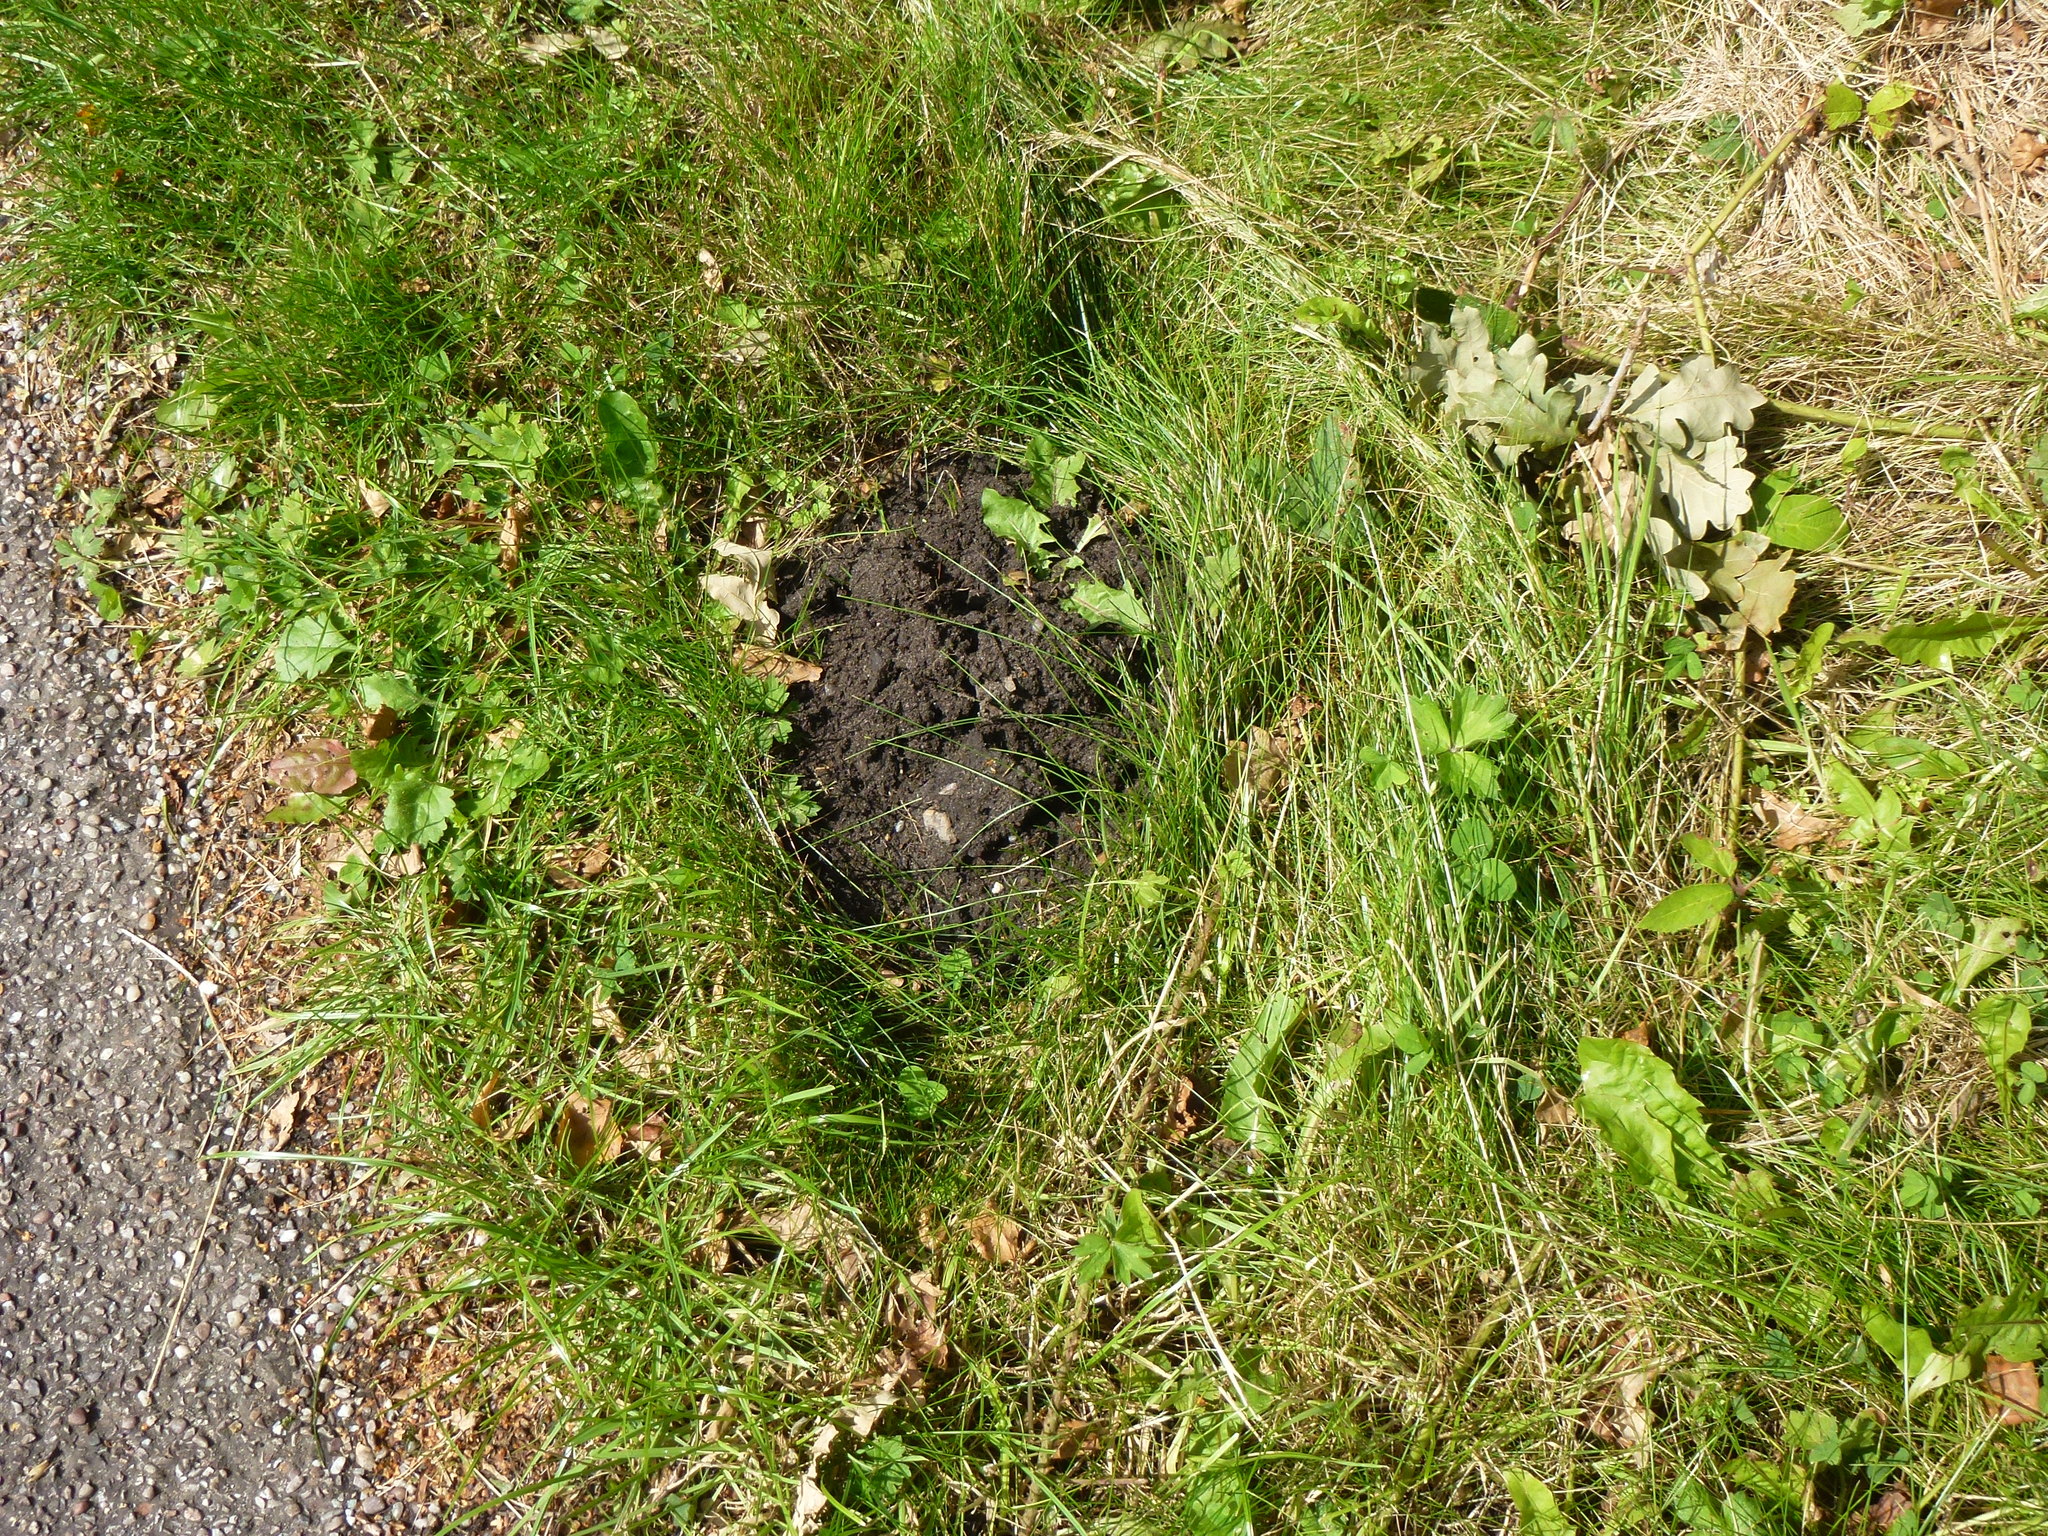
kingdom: Animalia
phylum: Chordata
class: Mammalia
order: Soricomorpha
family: Talpidae
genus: Talpa
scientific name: Talpa europaea
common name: European mole
